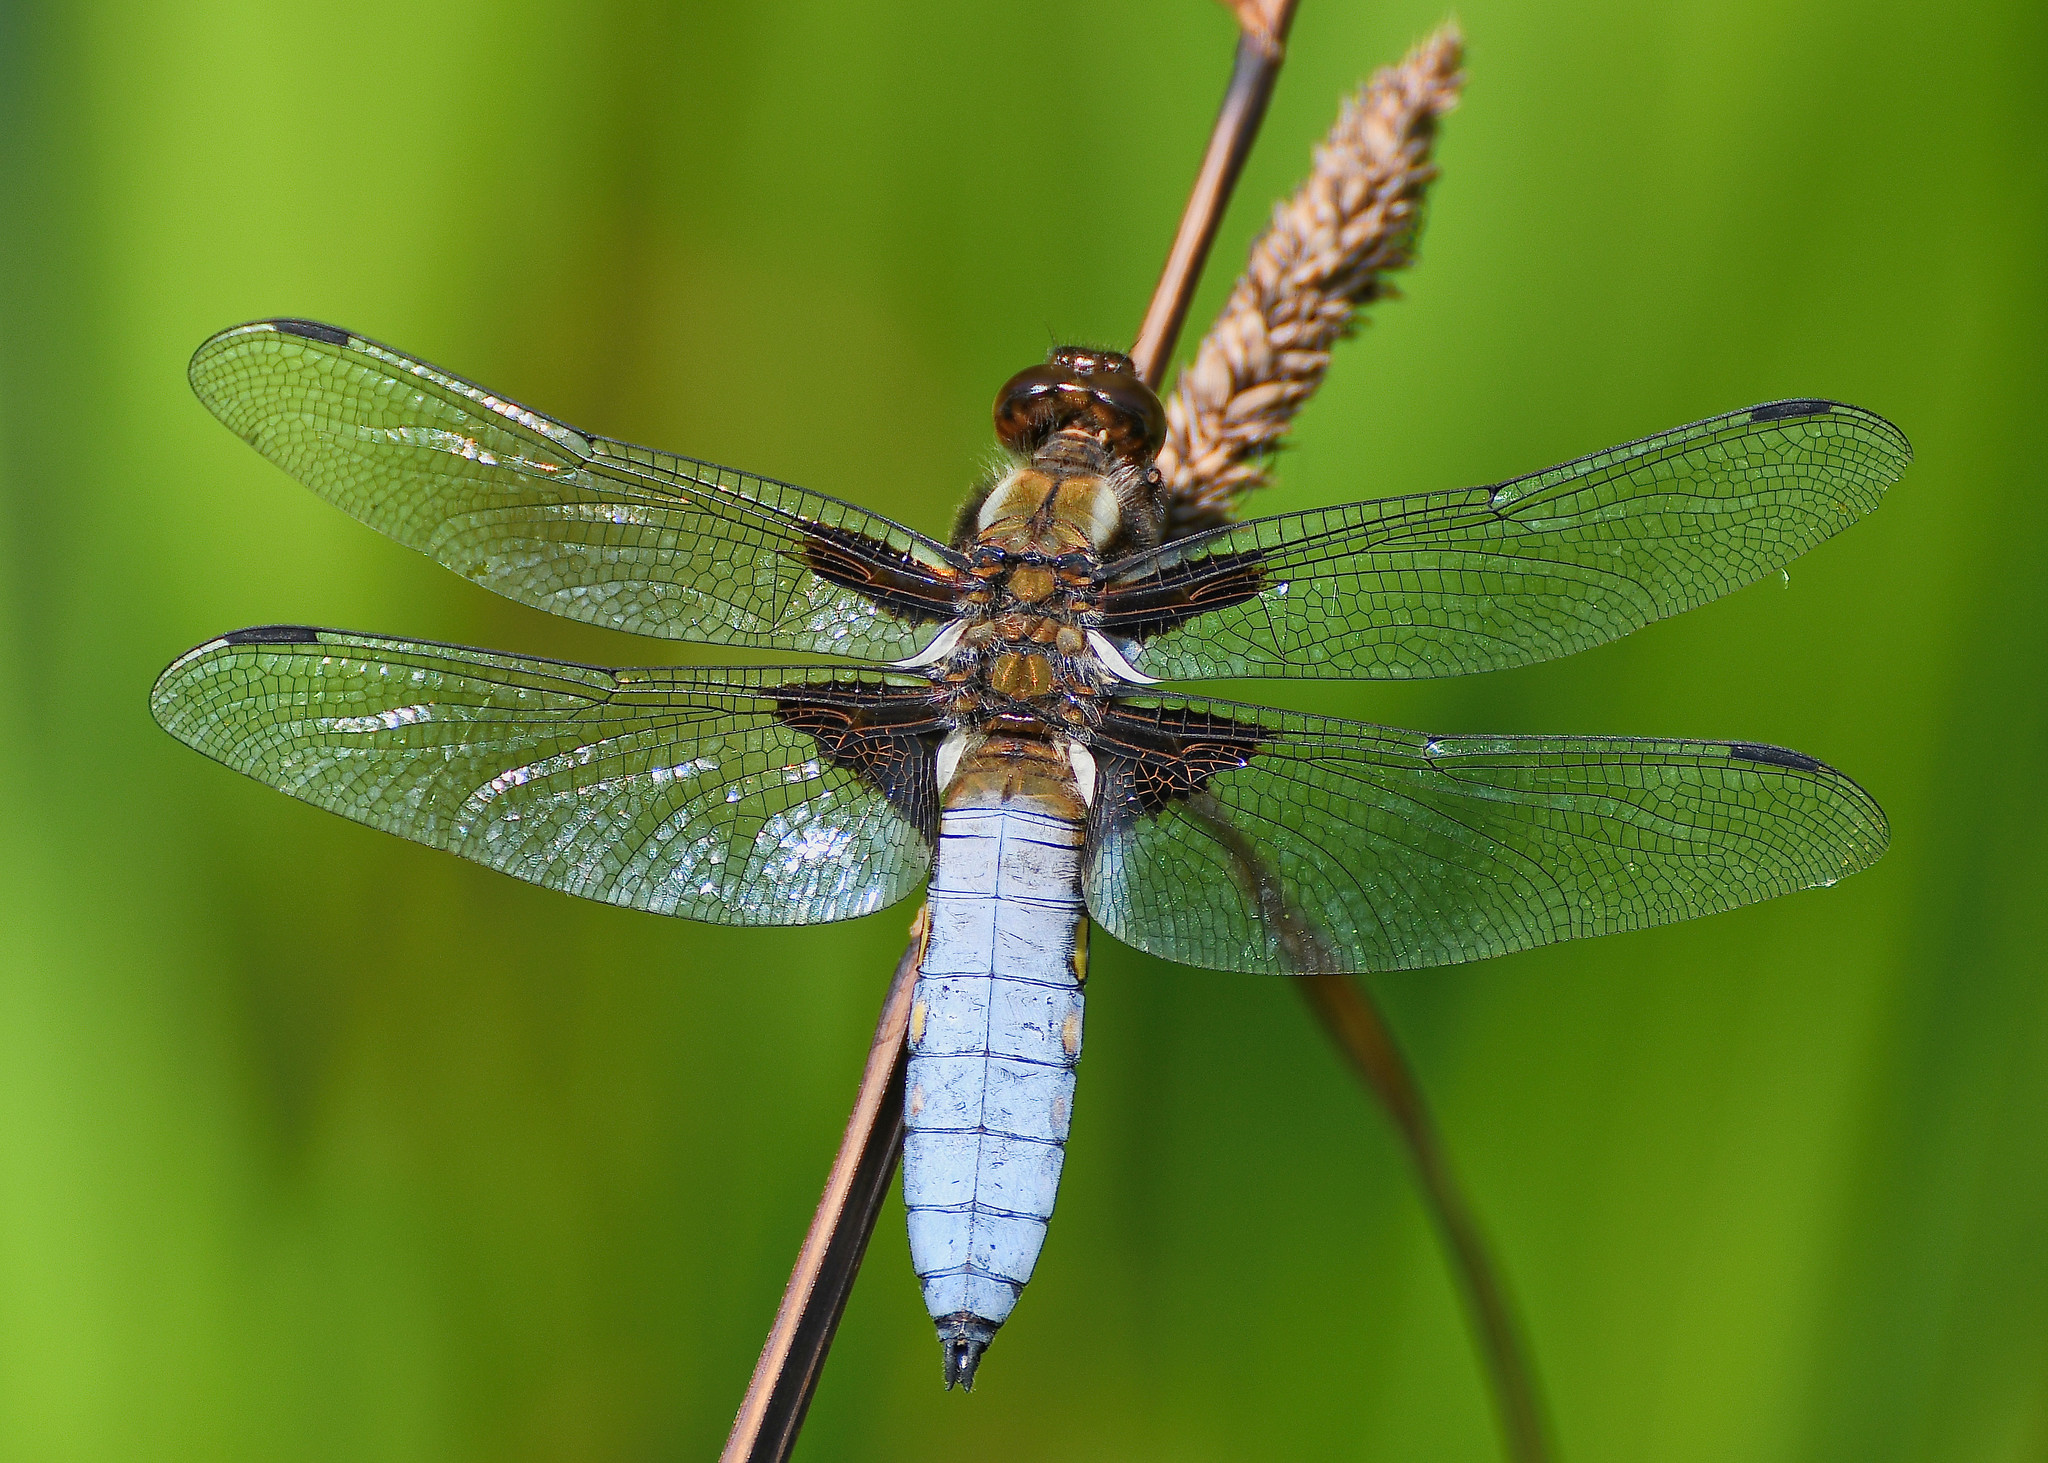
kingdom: Animalia
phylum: Arthropoda
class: Insecta
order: Odonata
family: Libellulidae
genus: Libellula
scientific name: Libellula depressa
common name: Broad-bodied chaser
